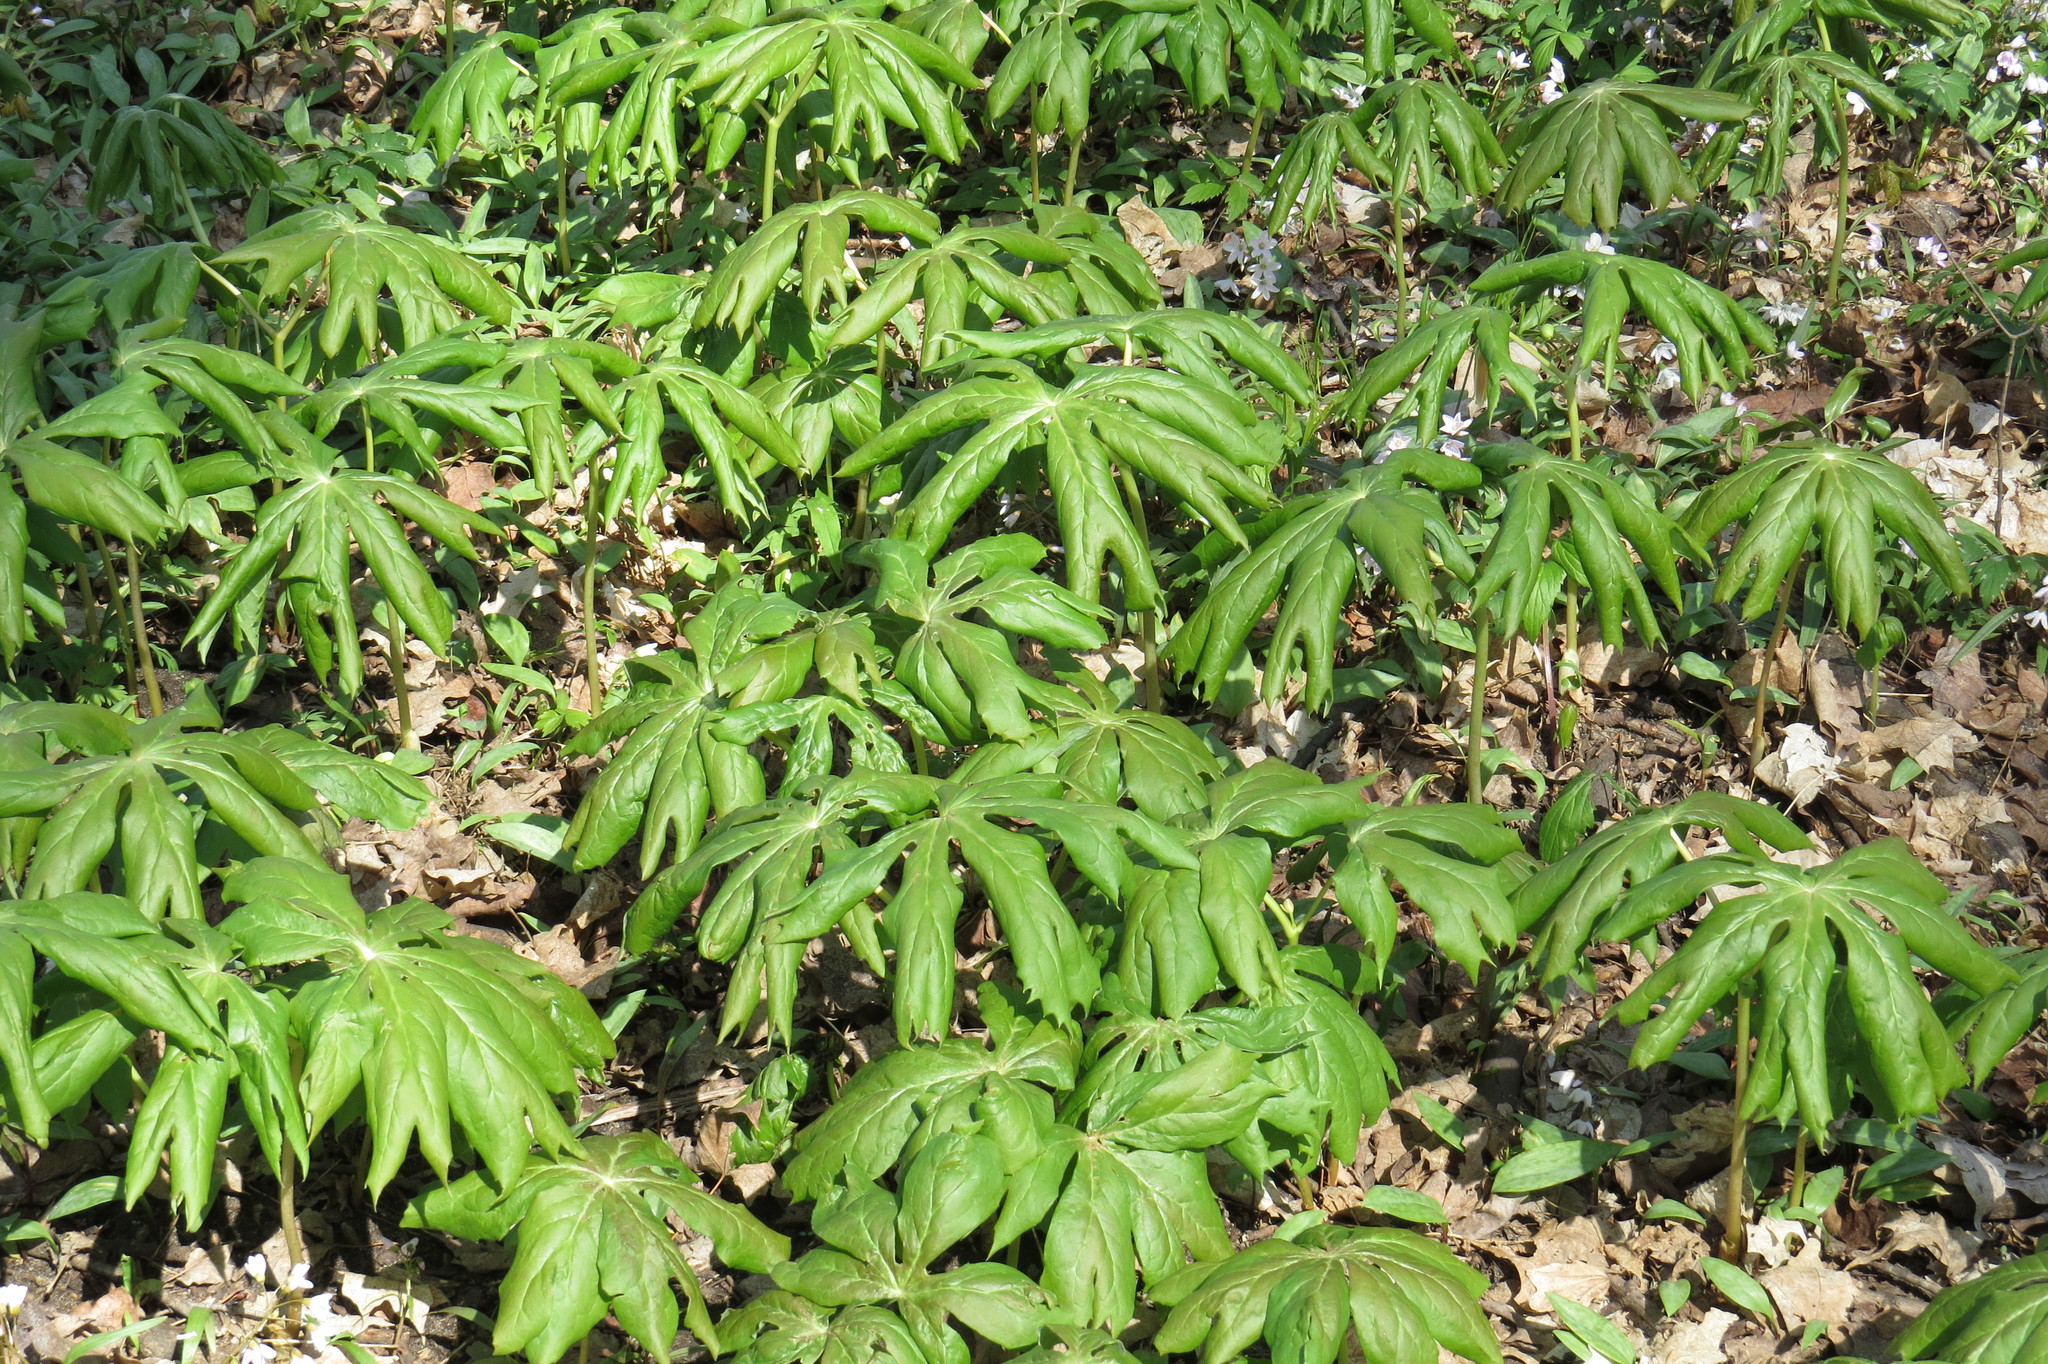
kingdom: Plantae
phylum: Tracheophyta
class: Magnoliopsida
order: Ranunculales
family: Berberidaceae
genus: Podophyllum
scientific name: Podophyllum peltatum
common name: Wild mandrake
